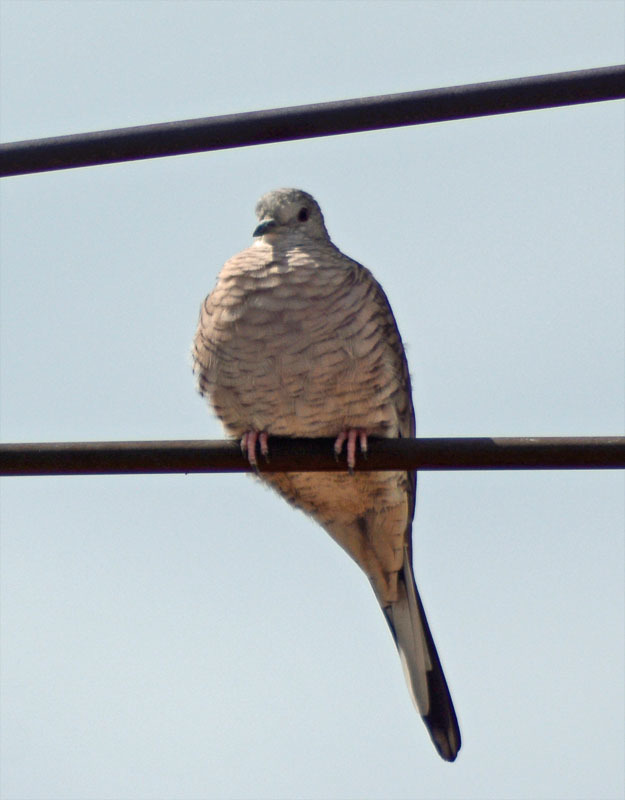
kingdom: Animalia
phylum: Chordata
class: Aves
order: Columbiformes
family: Columbidae
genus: Columbina
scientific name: Columbina inca
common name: Inca dove
